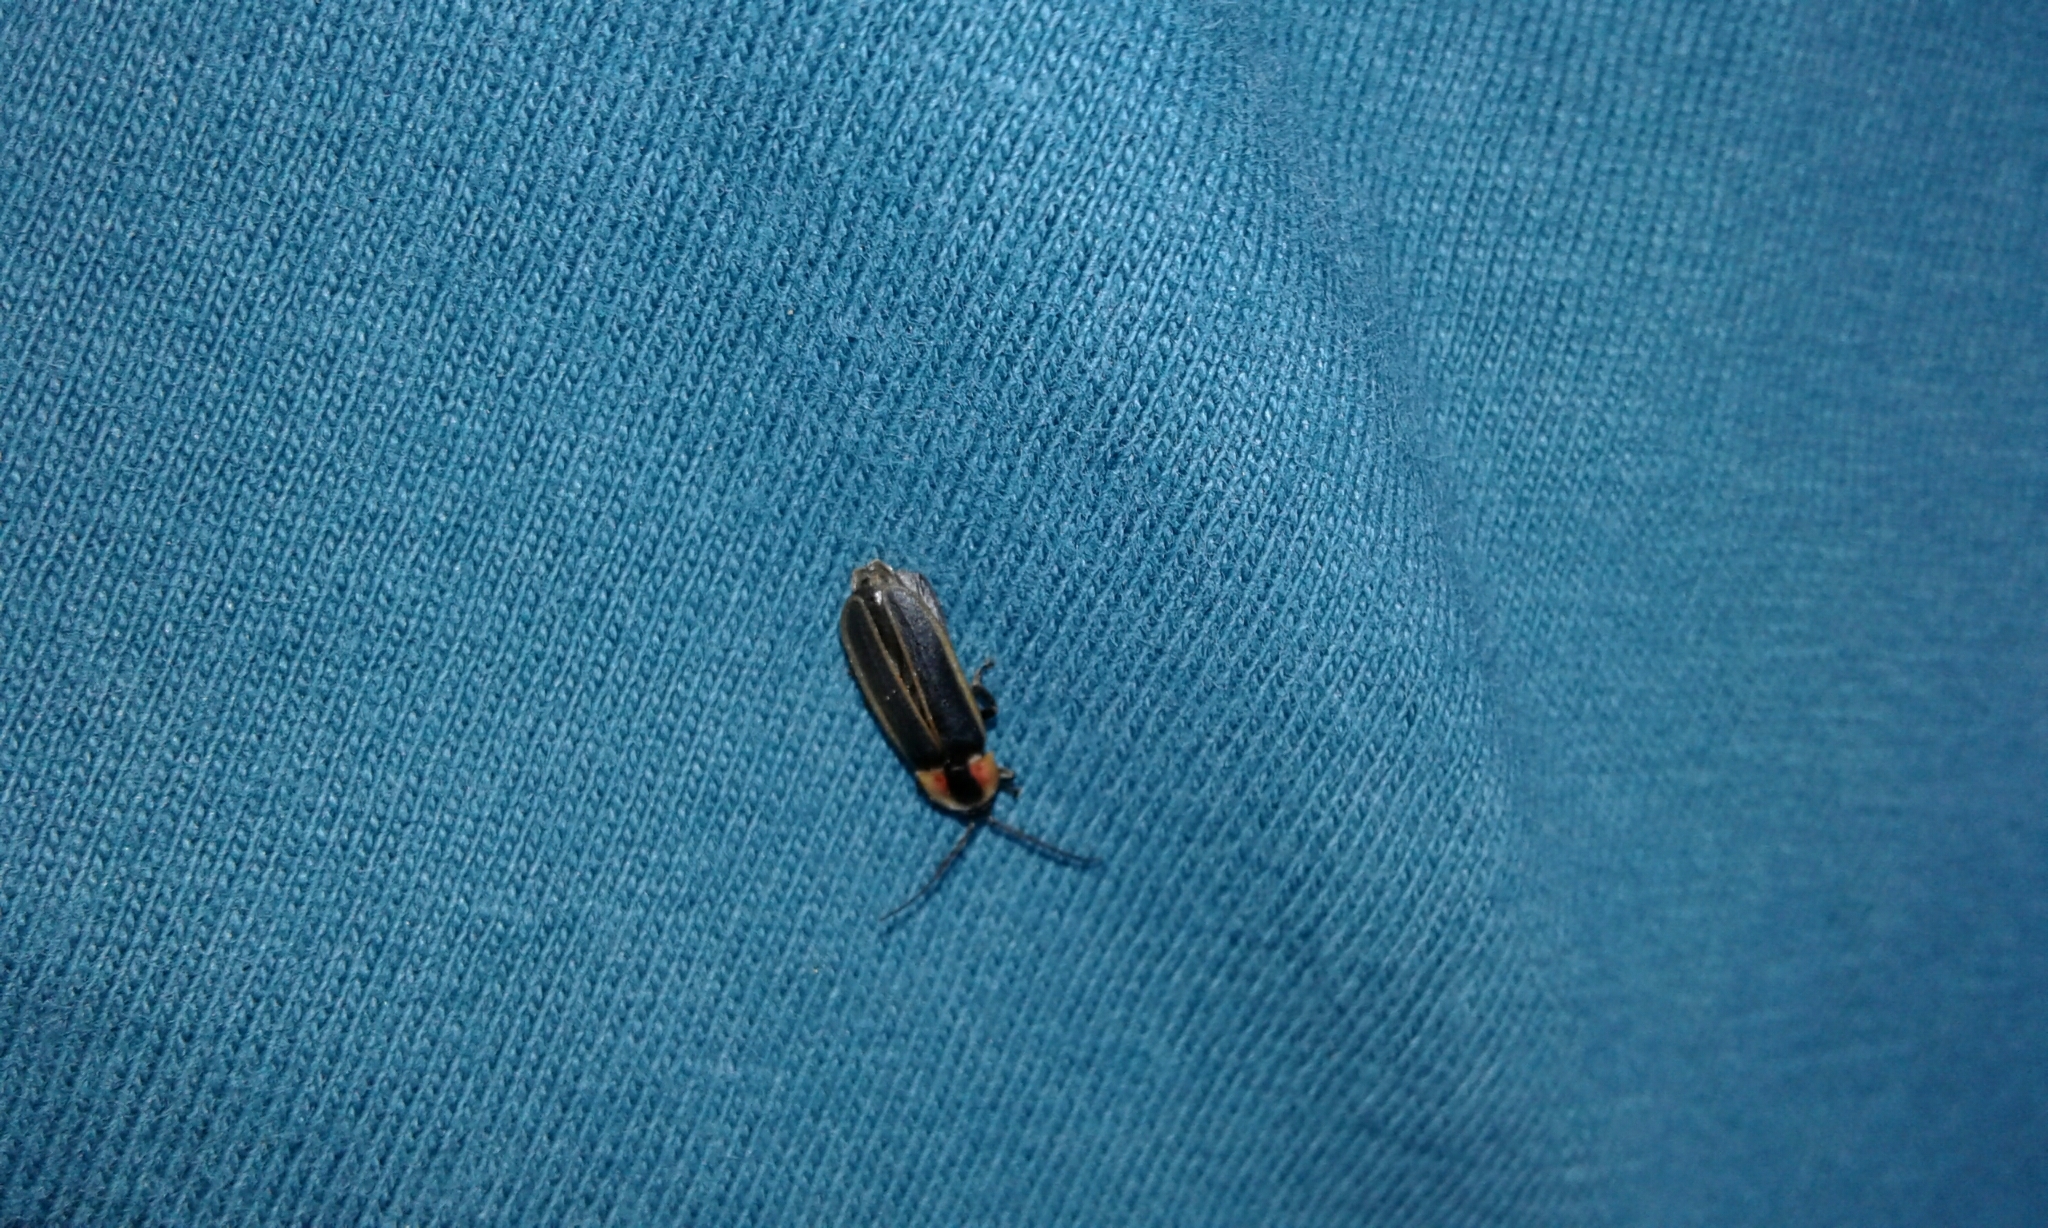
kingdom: Animalia
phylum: Arthropoda
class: Insecta
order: Coleoptera
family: Lampyridae
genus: Photinus
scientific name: Photinus consanguineus
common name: Consanguineous firefly
